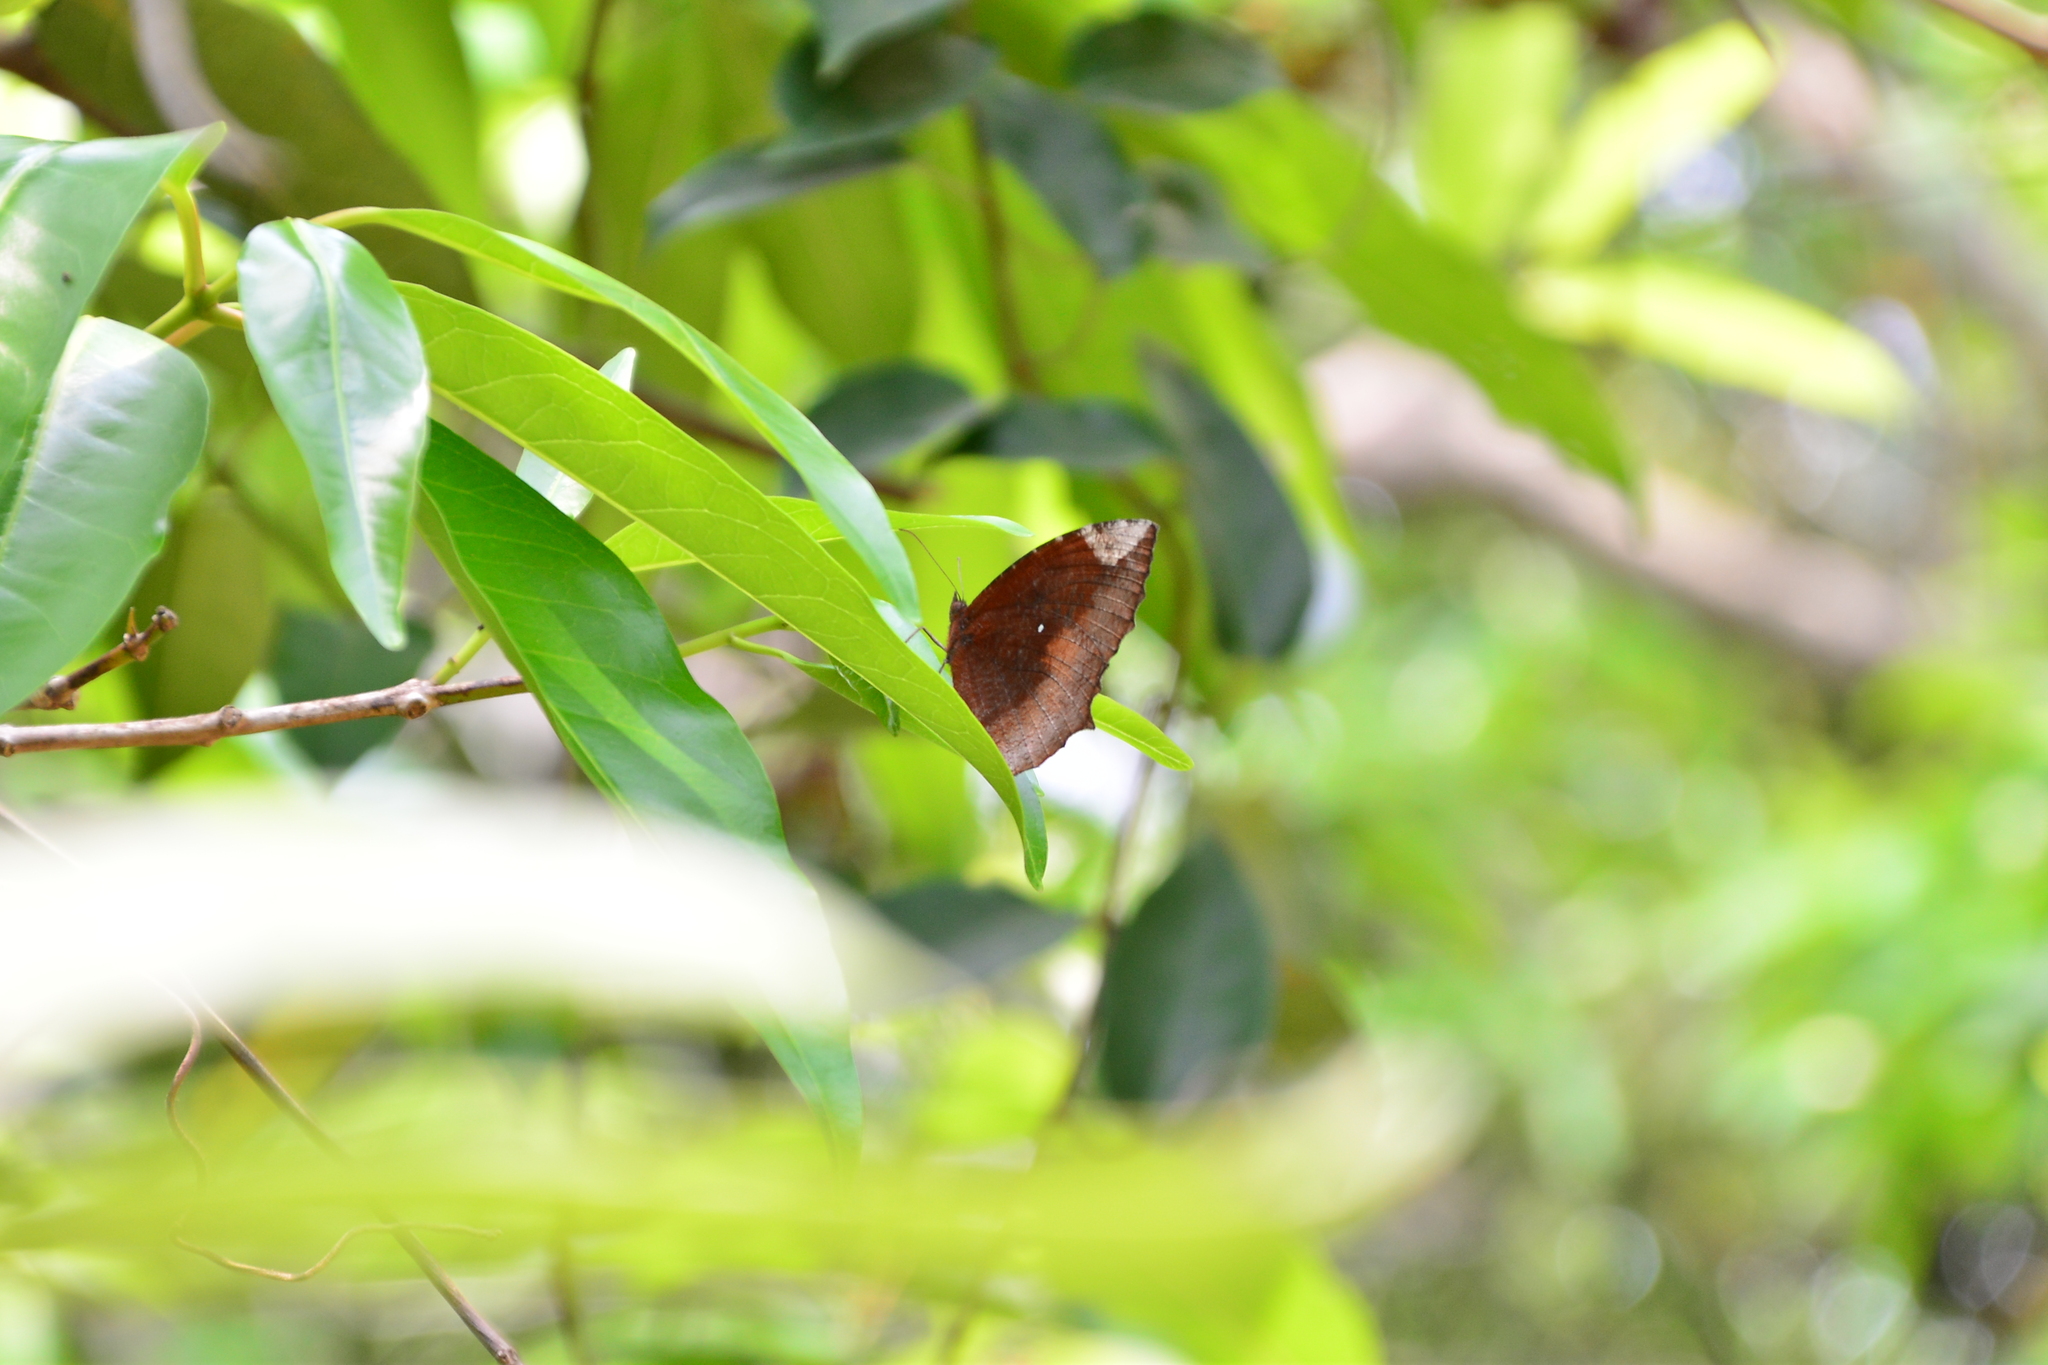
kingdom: Animalia
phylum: Arthropoda
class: Insecta
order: Lepidoptera
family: Nymphalidae
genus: Elymnias
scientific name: Elymnias hypermnestra
